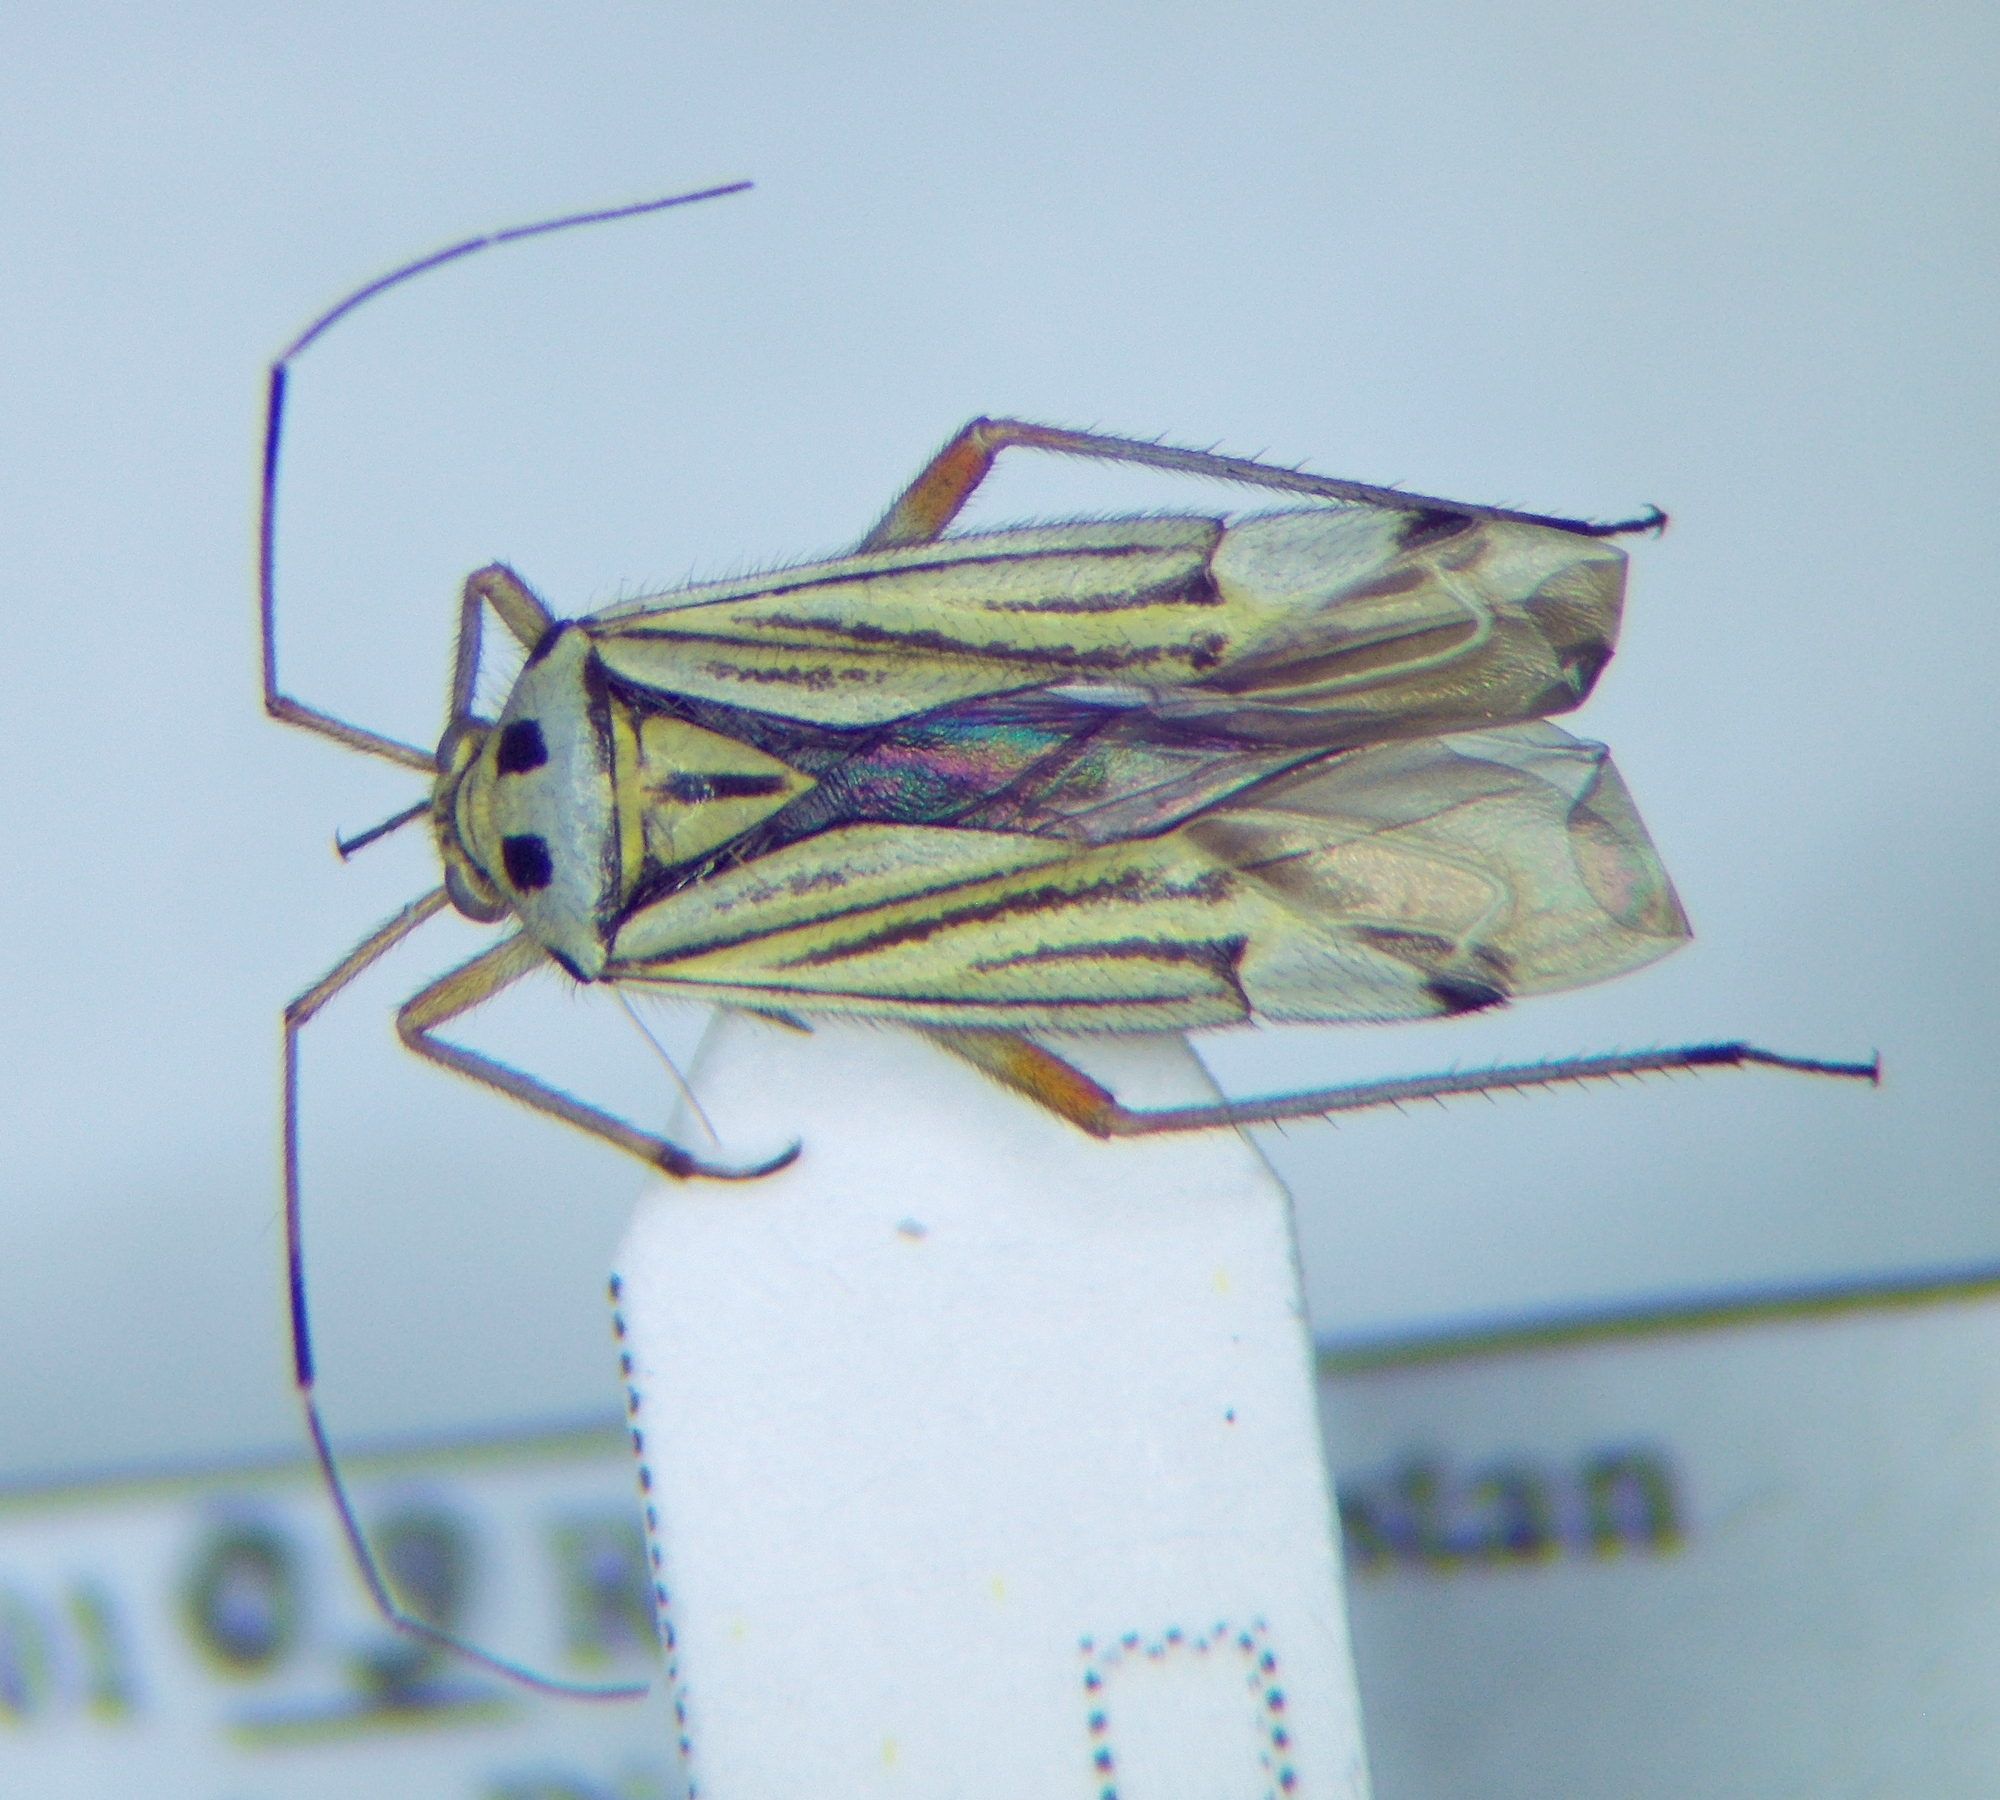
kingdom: Animalia
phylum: Arthropoda
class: Insecta
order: Hemiptera
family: Miridae
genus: Mermitelocerus
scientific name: Mermitelocerus schmidtii
